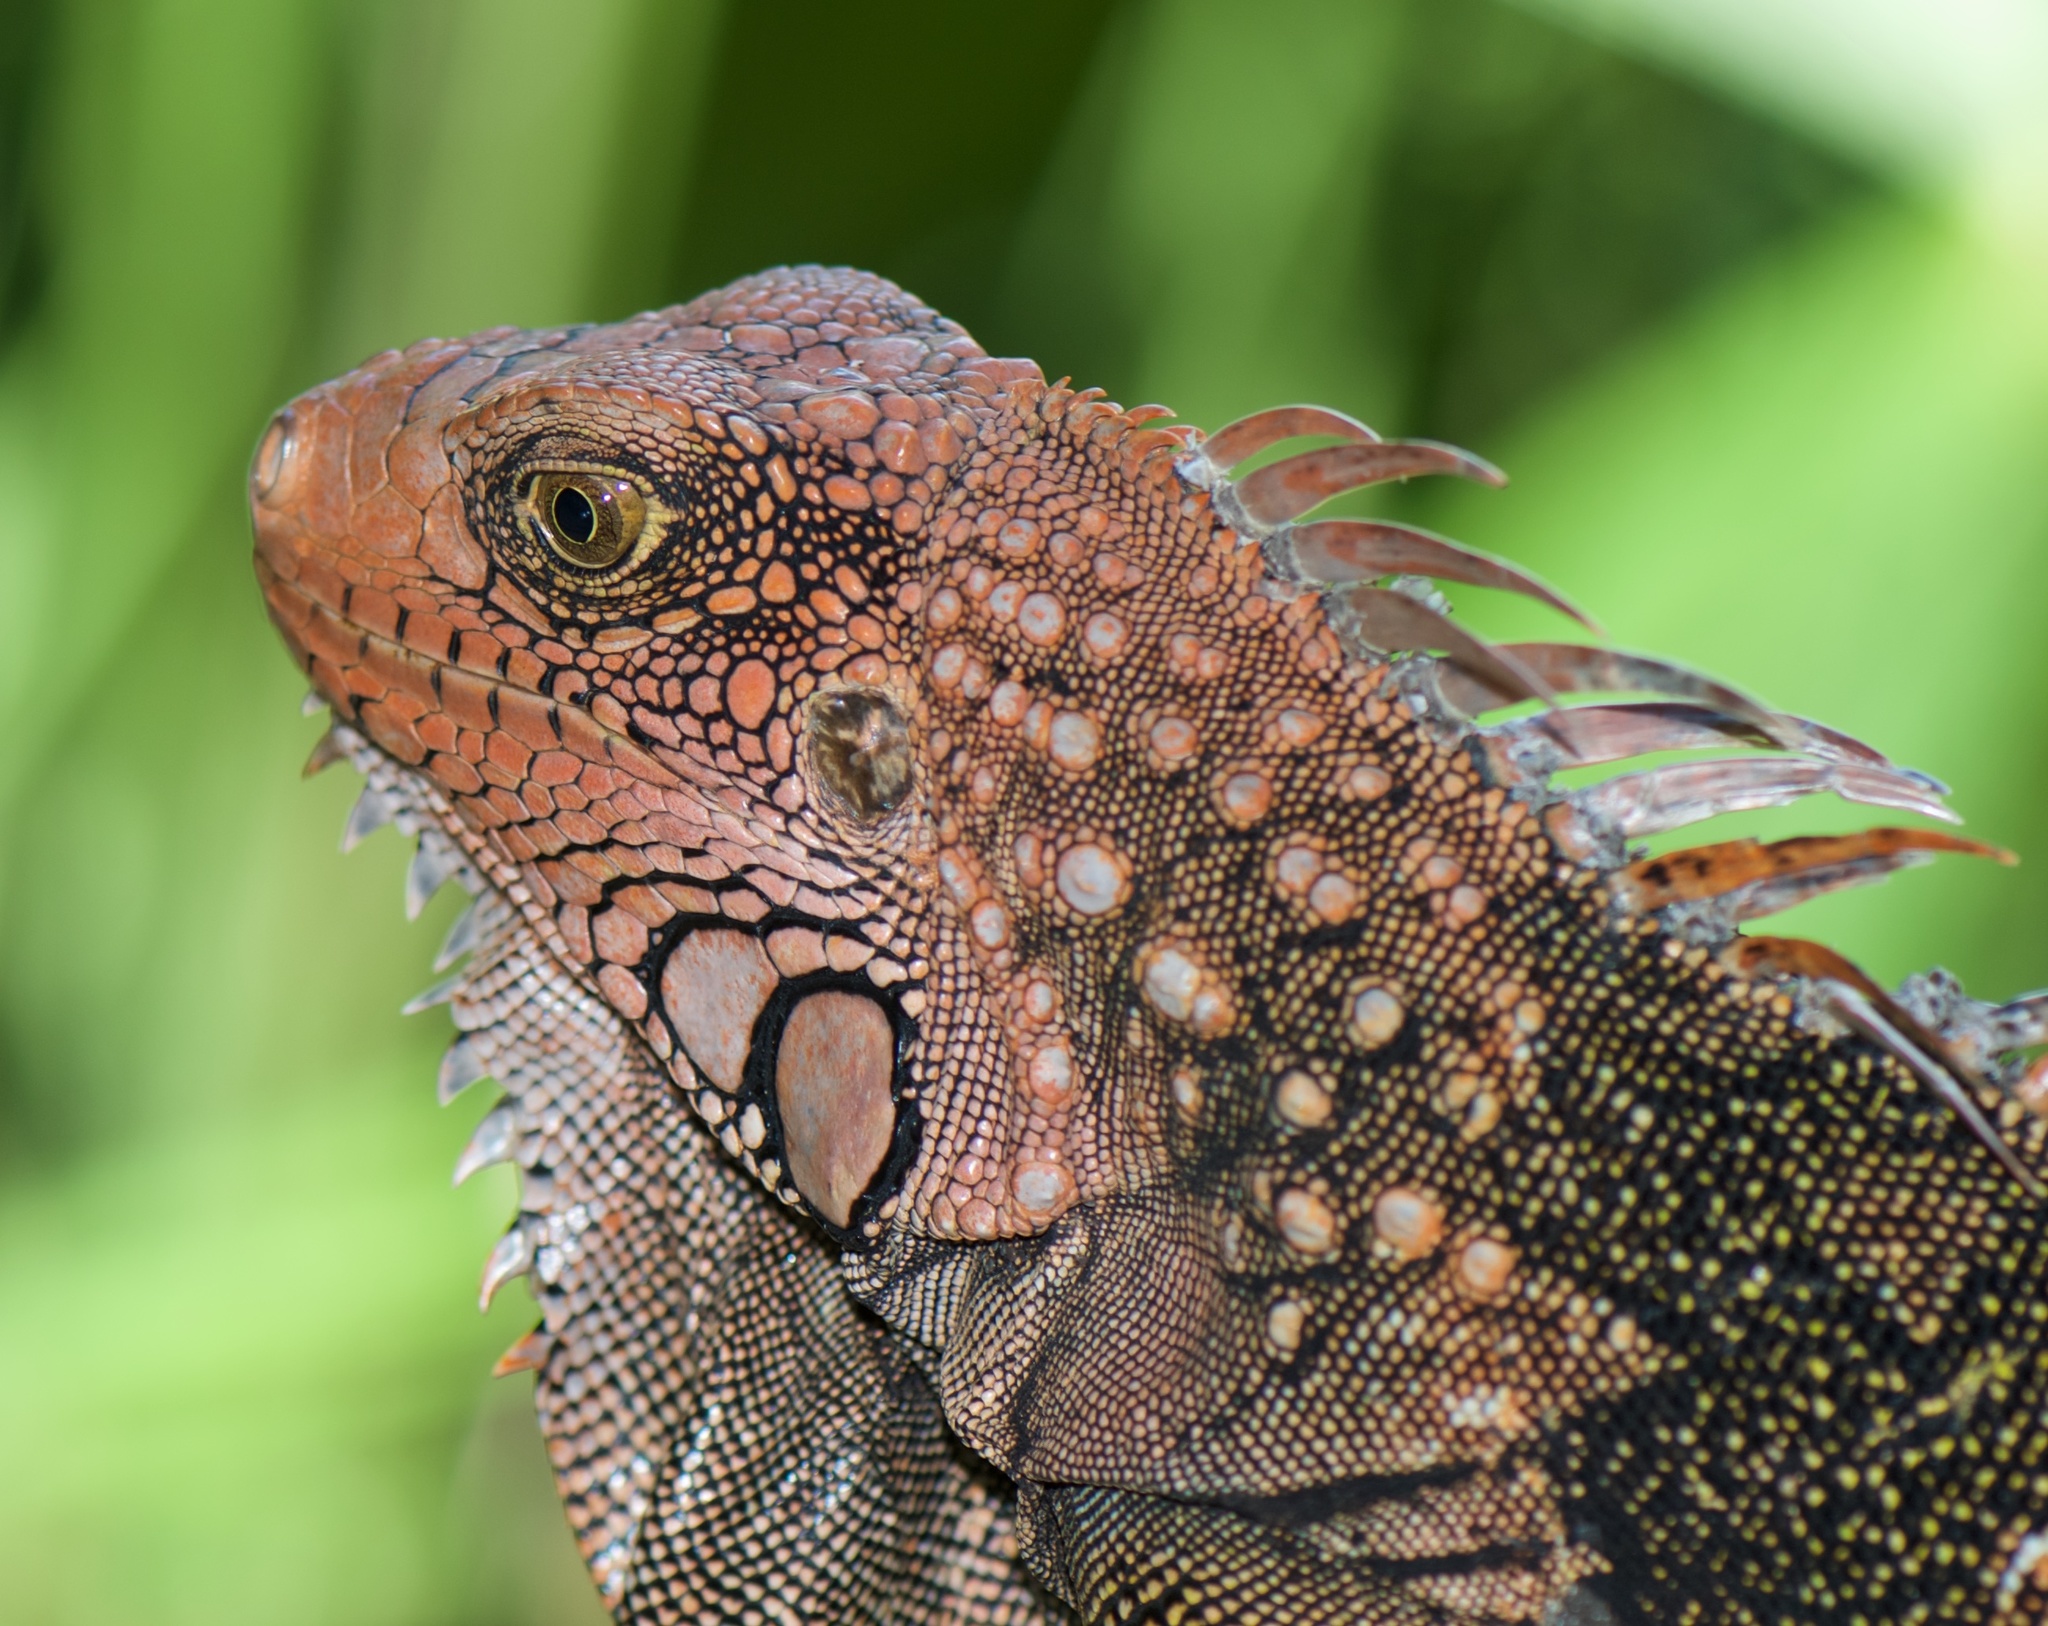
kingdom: Animalia
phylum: Chordata
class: Squamata
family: Iguanidae
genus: Iguana
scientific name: Iguana iguana
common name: Green iguana
